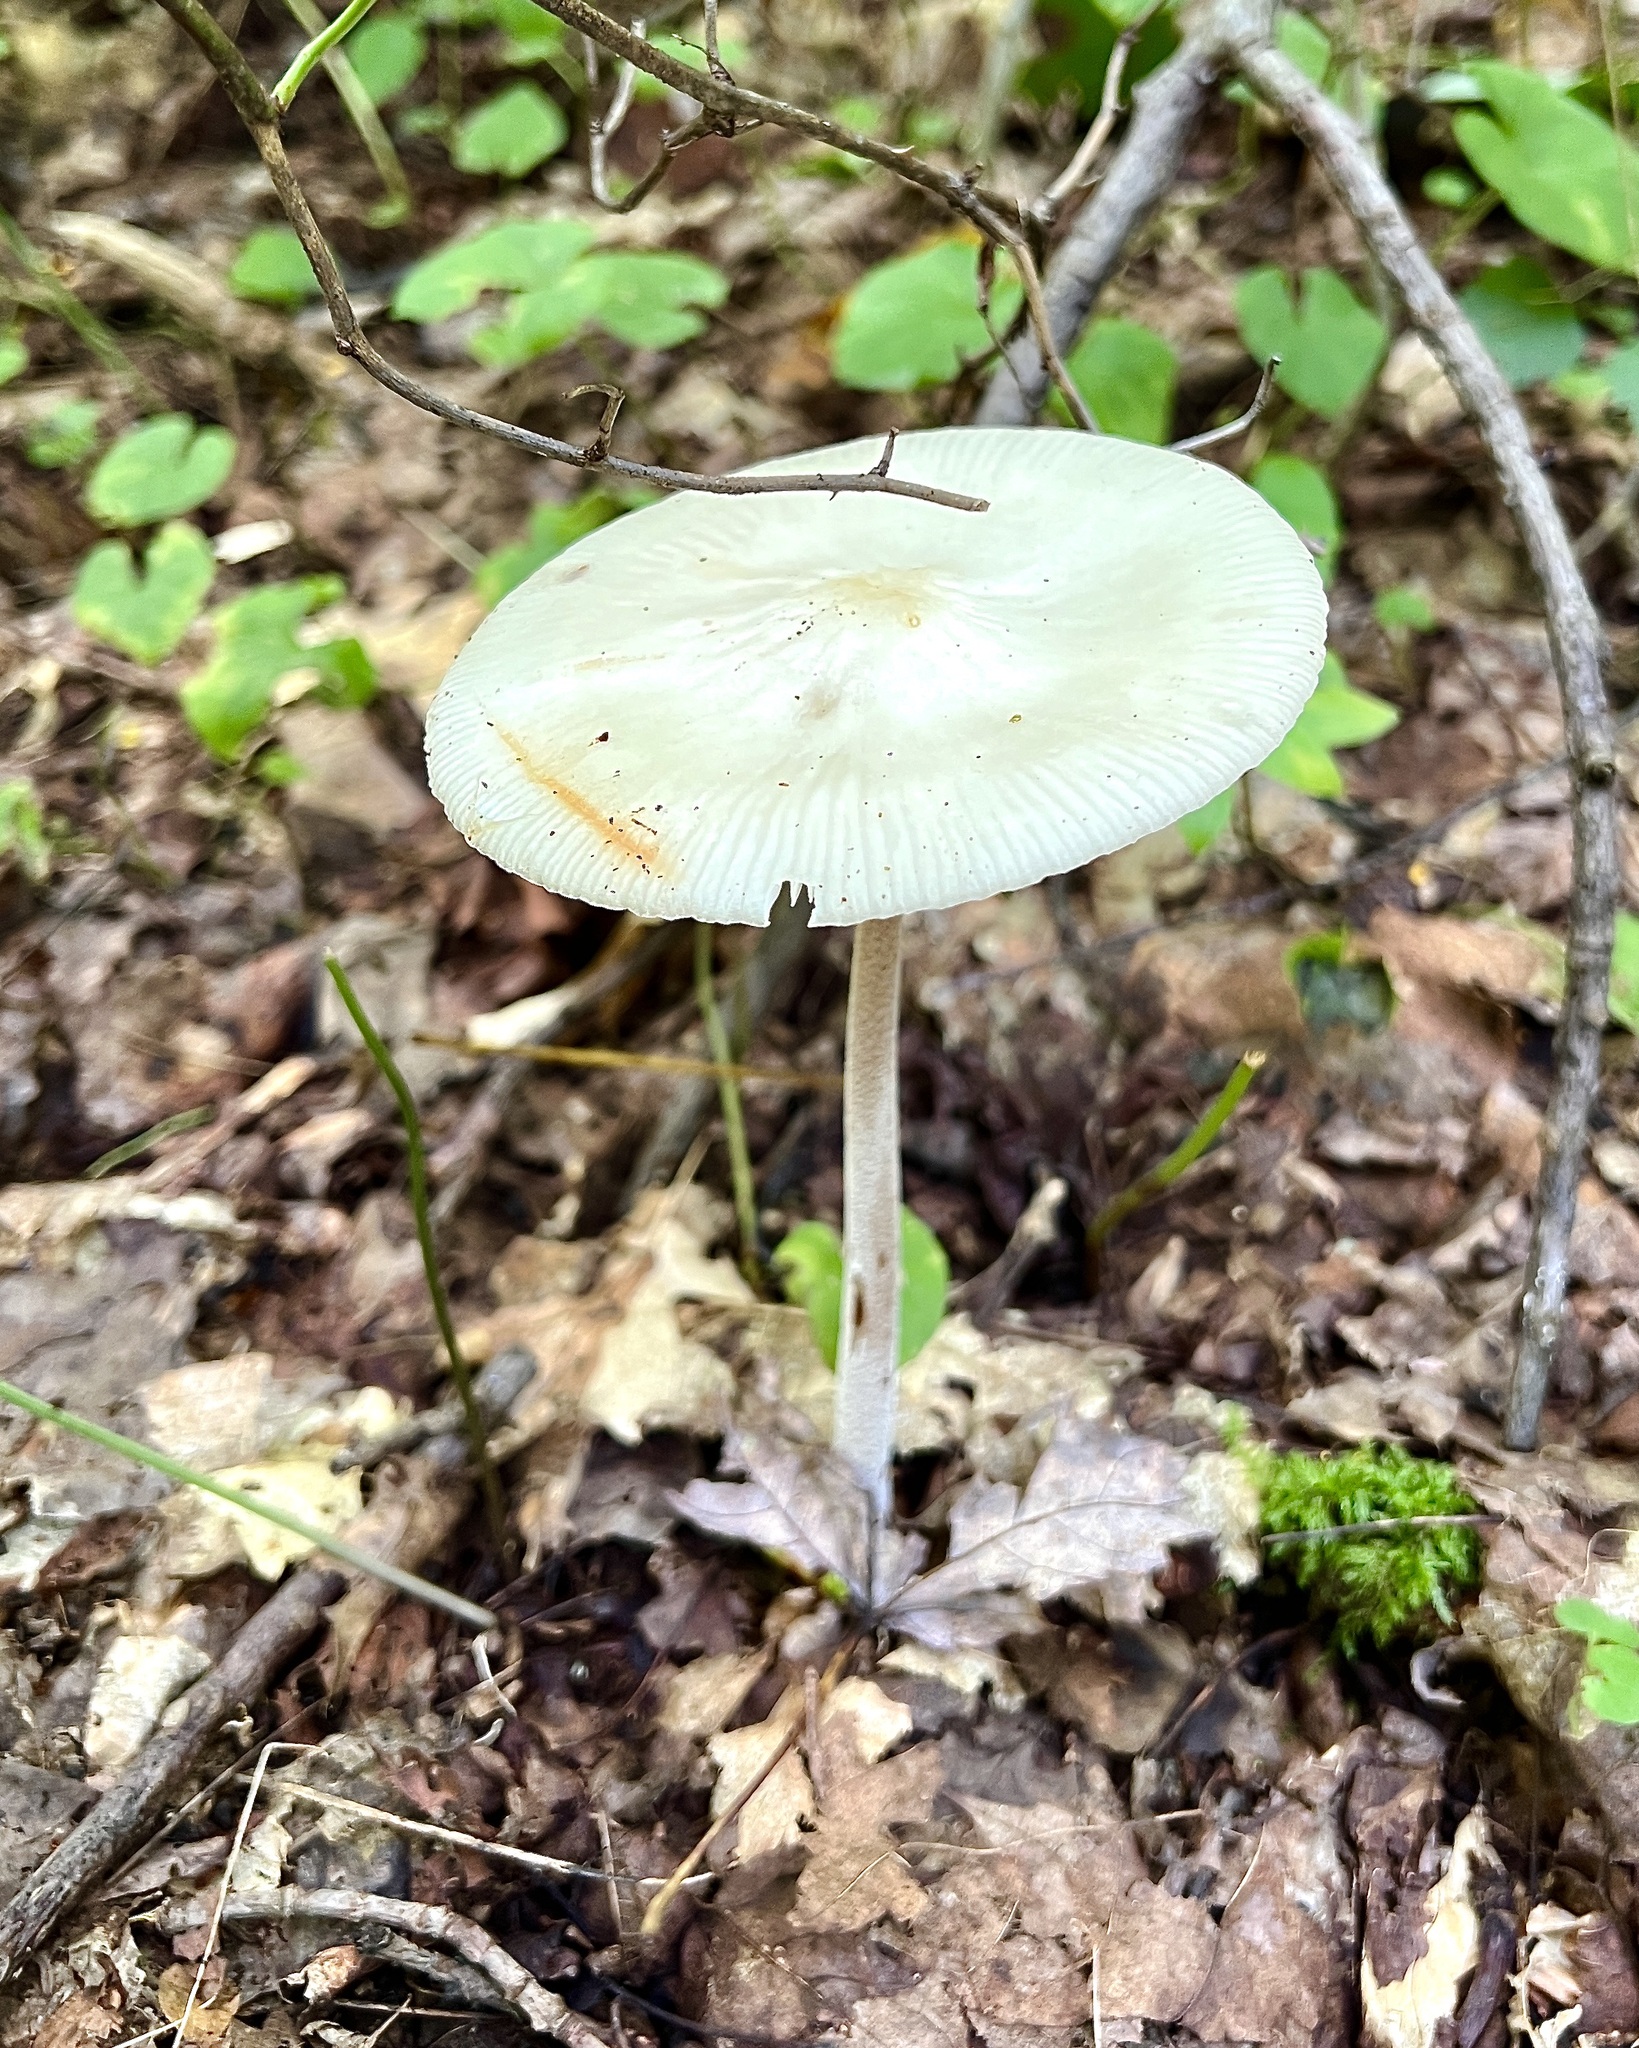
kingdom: Fungi
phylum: Basidiomycota
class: Agaricomycetes
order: Agaricales
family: Physalacriaceae
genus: Hymenopellis
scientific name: Hymenopellis furfuracea
